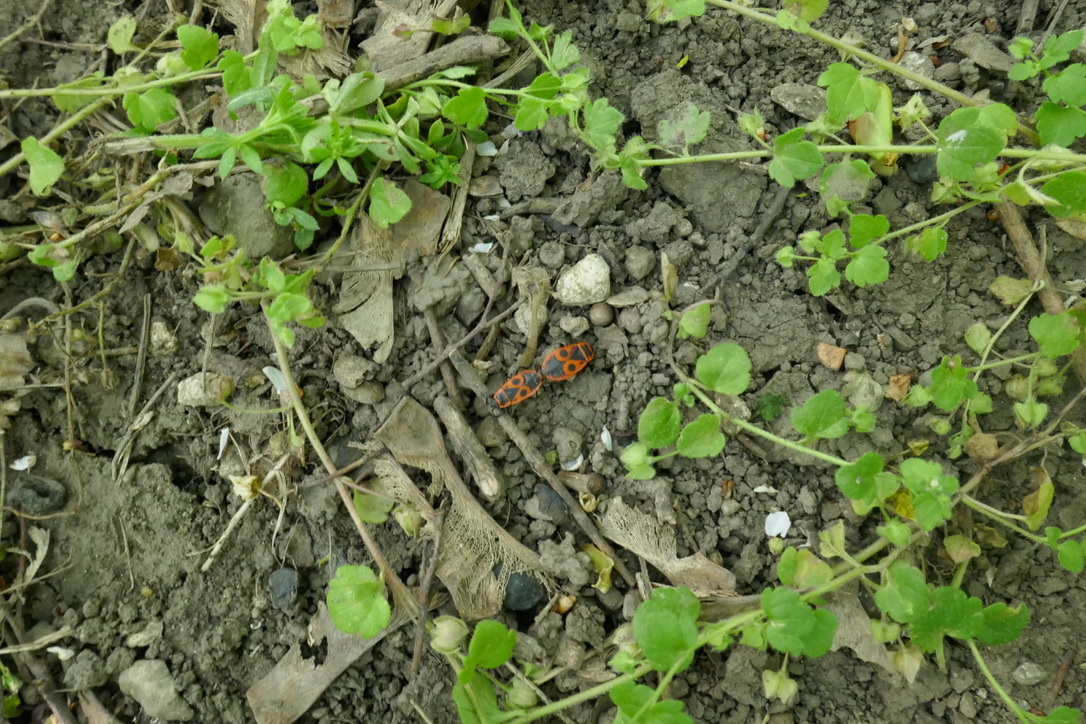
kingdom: Animalia
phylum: Arthropoda
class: Insecta
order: Hemiptera
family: Pyrrhocoridae
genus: Pyrrhocoris
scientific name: Pyrrhocoris apterus
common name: Firebug
